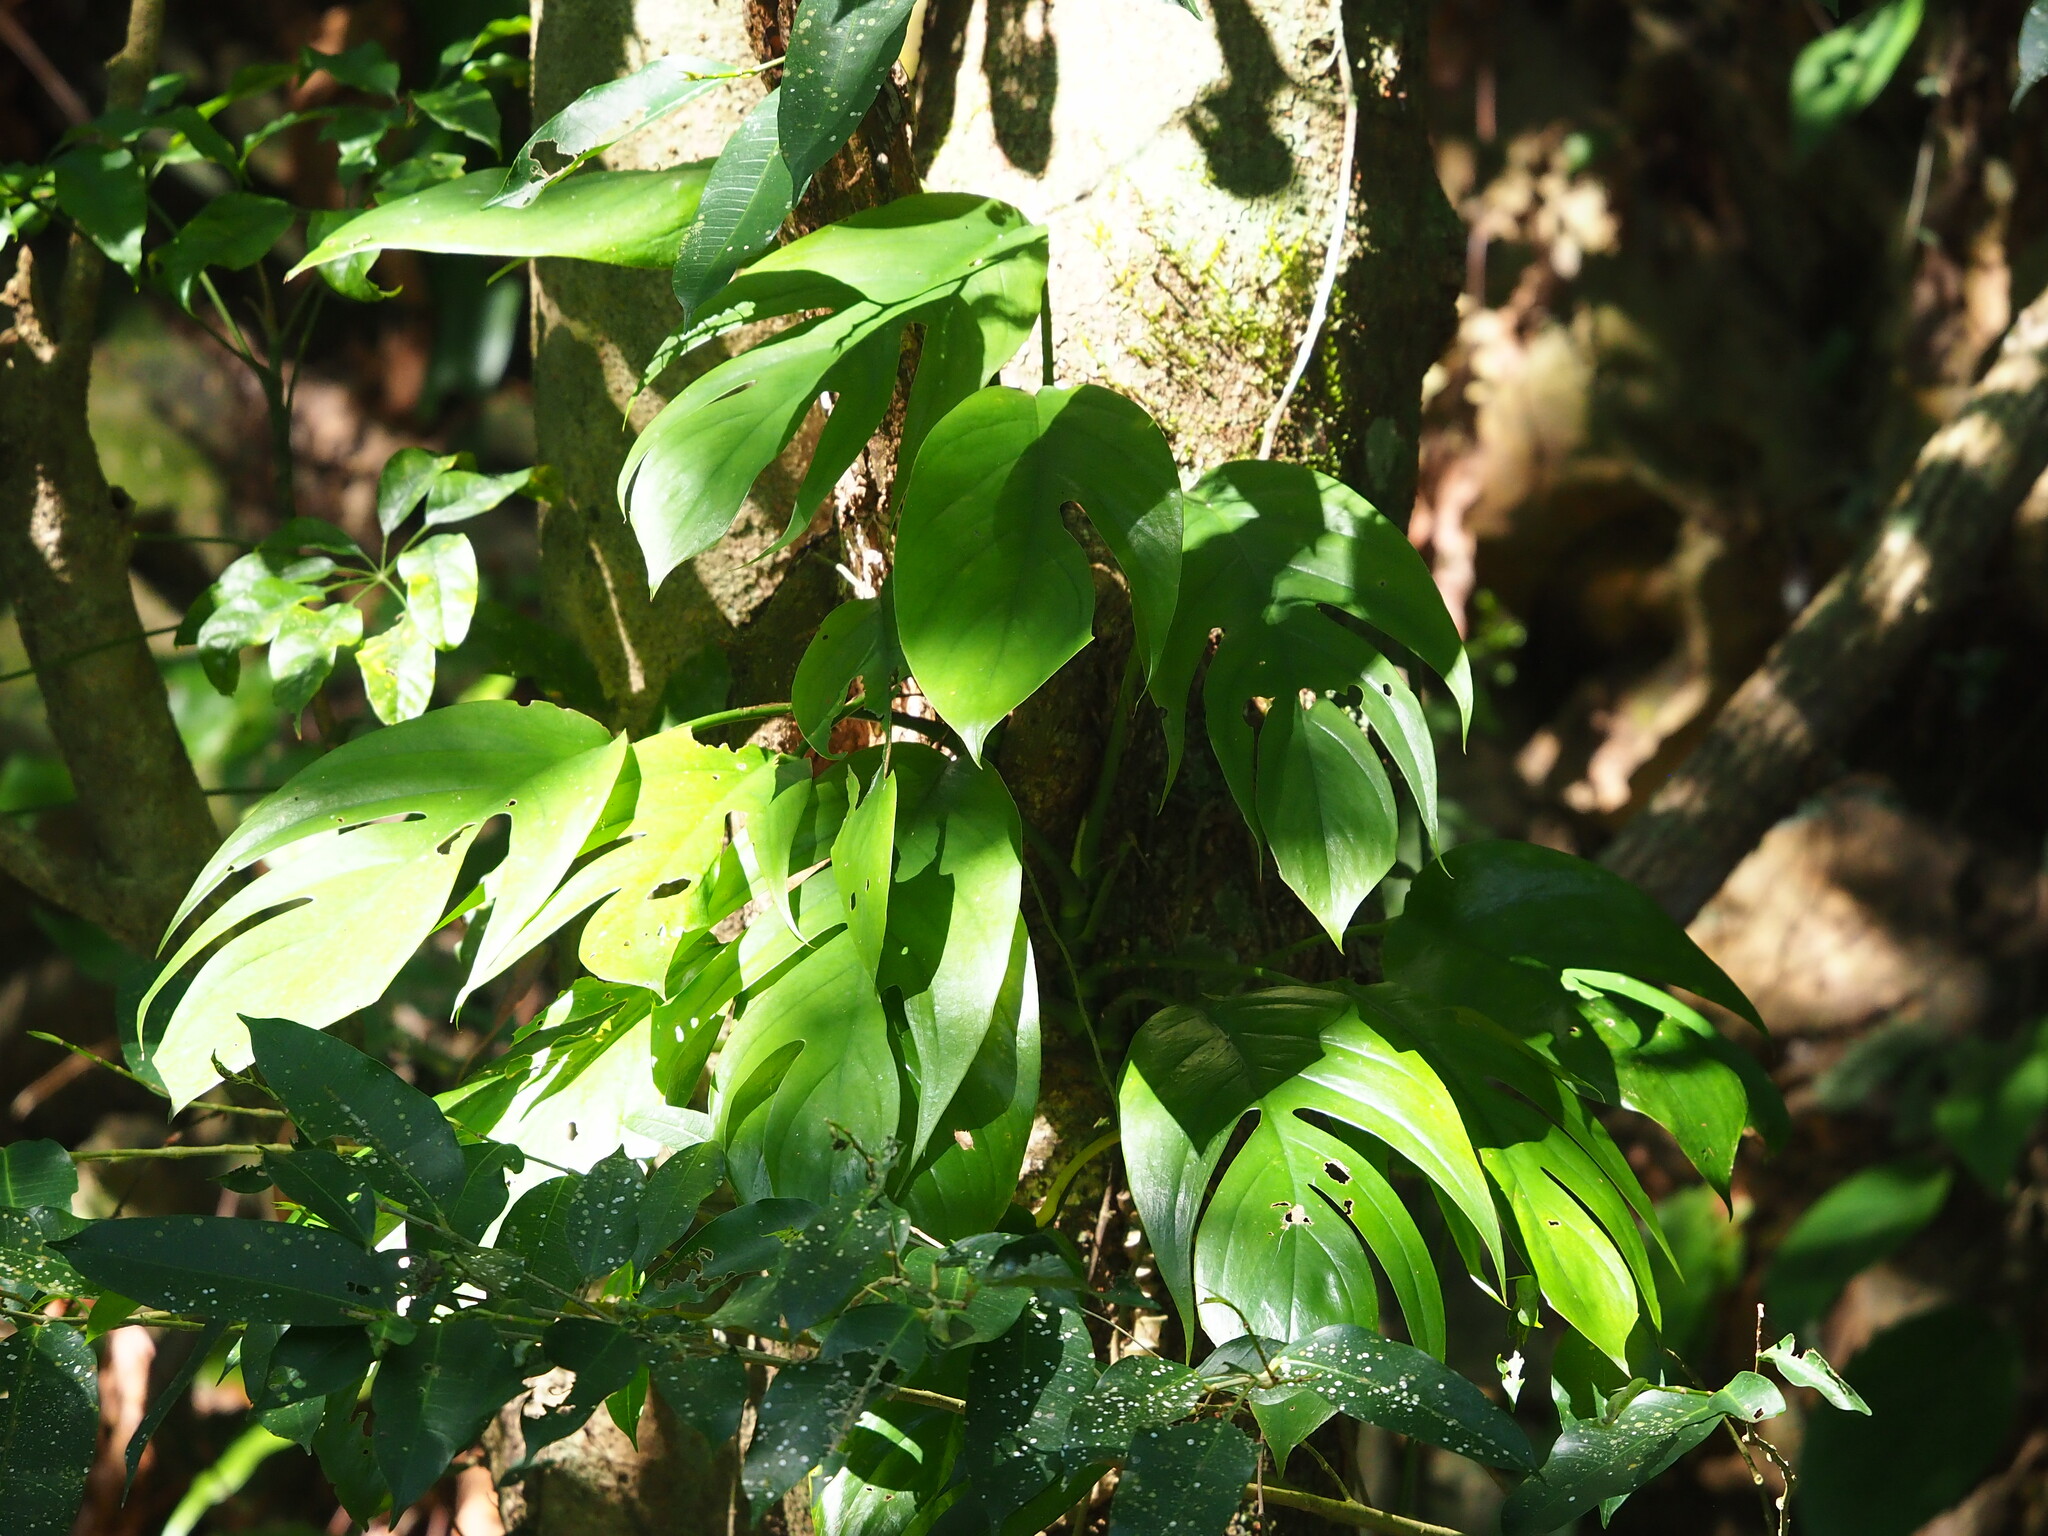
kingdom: Plantae
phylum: Tracheophyta
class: Liliopsida
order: Alismatales
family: Araceae
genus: Epipremnum
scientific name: Epipremnum pinnatum
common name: Centipede tongavine
